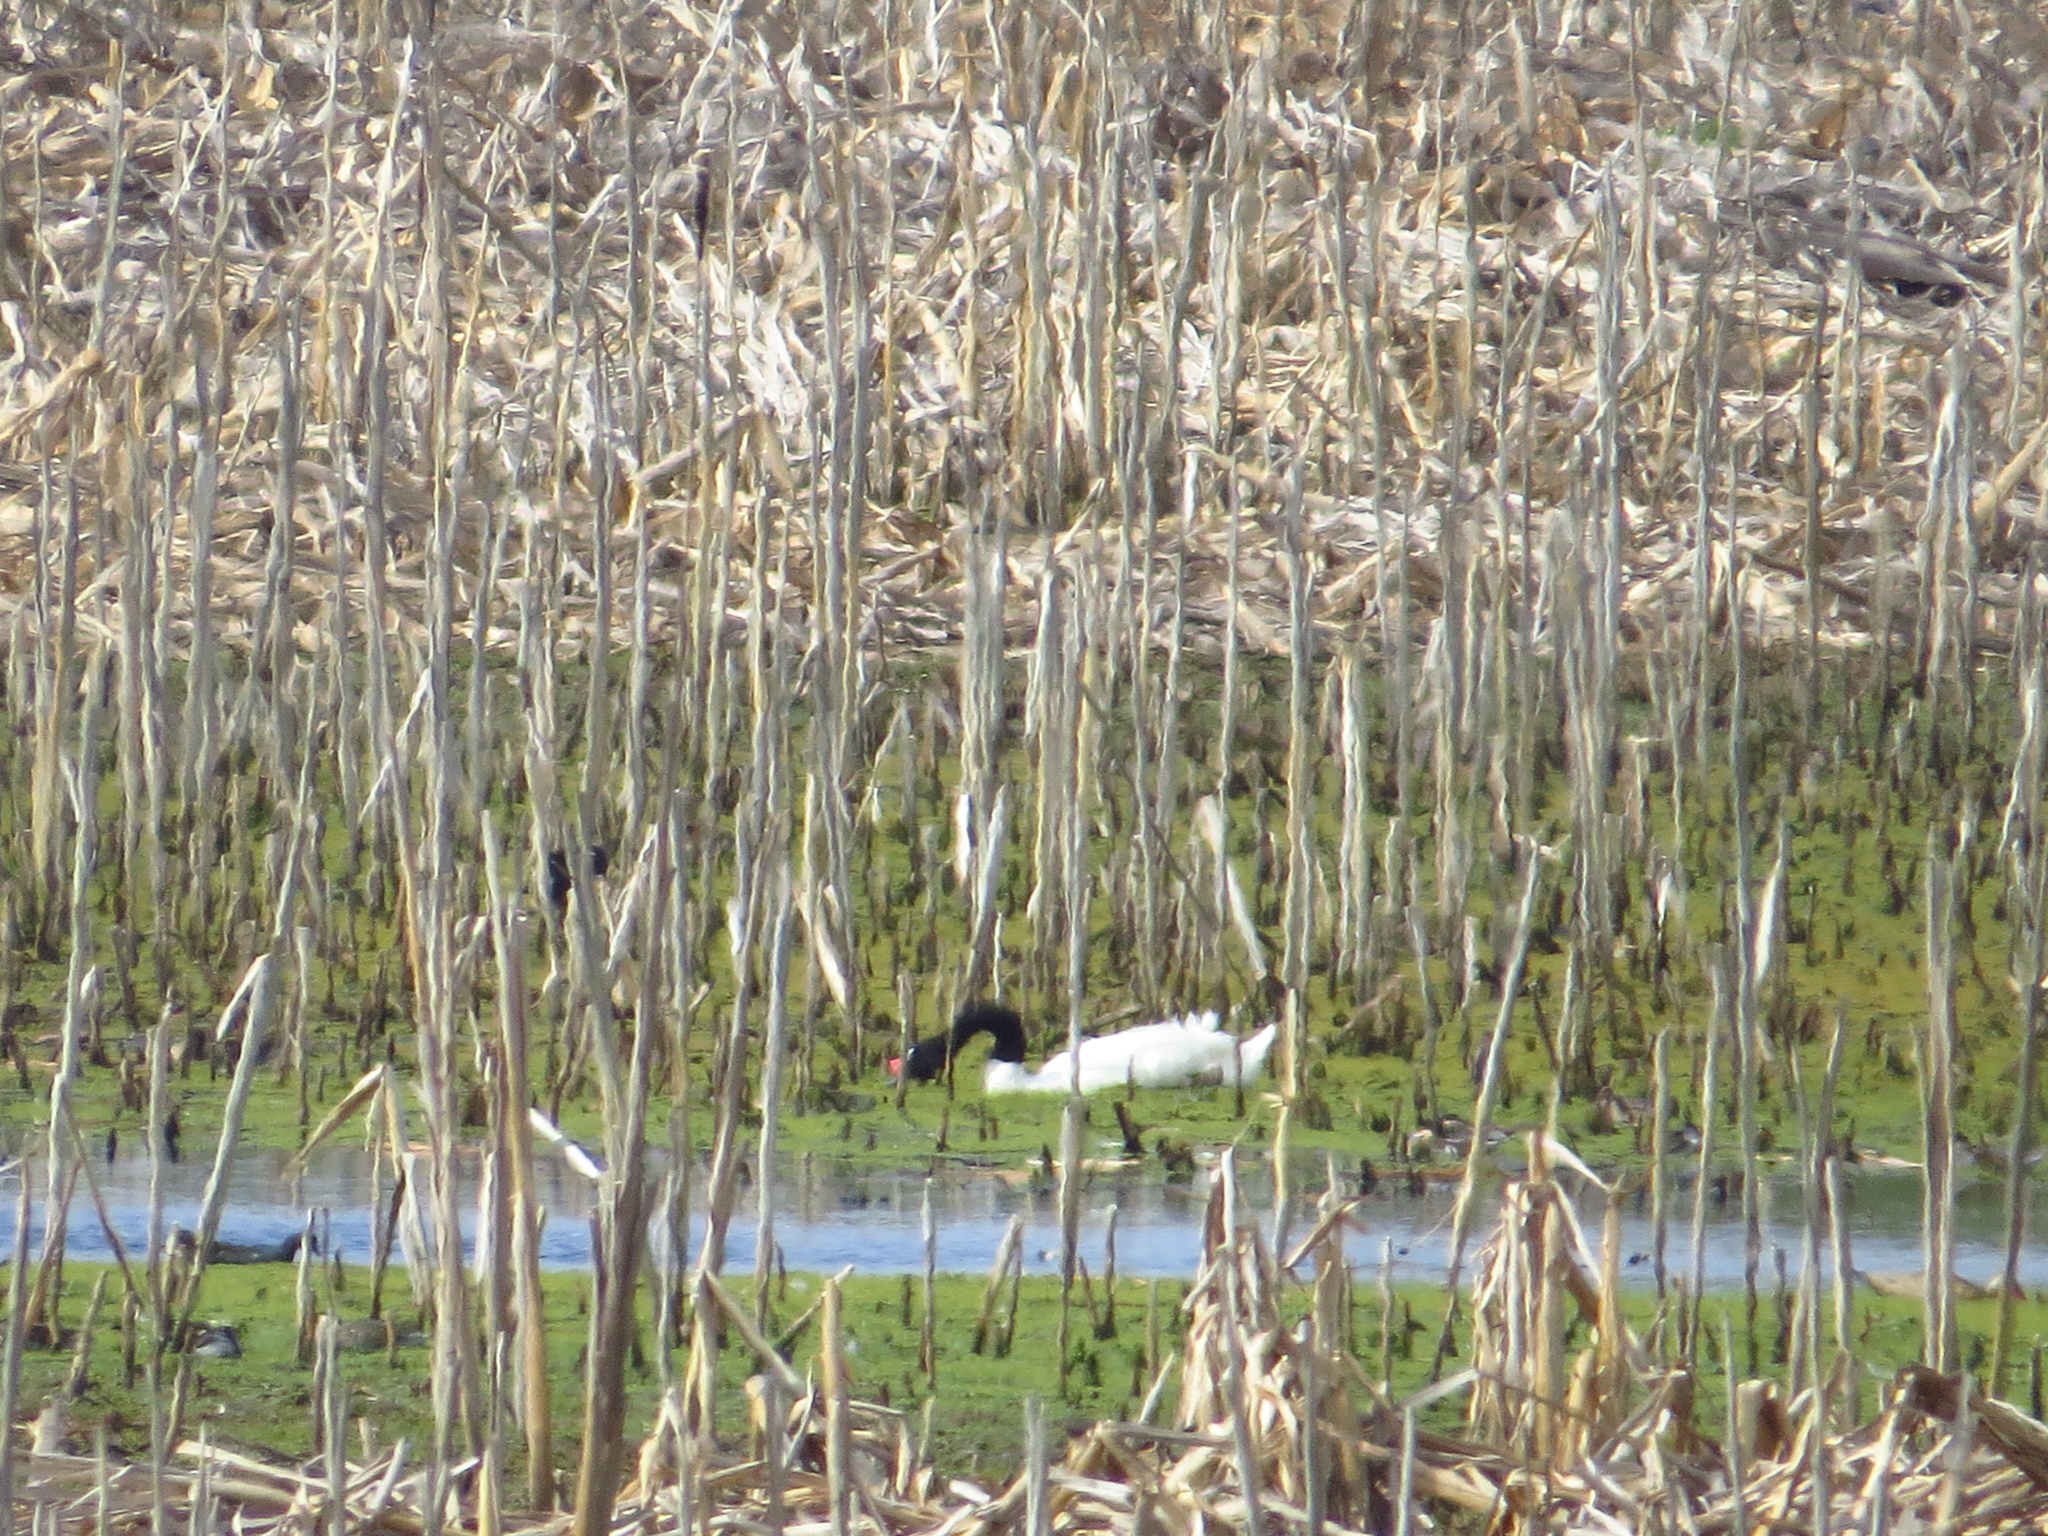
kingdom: Animalia
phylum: Chordata
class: Aves
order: Anseriformes
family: Anatidae
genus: Cygnus
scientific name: Cygnus melancoryphus
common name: Black-necked swan
